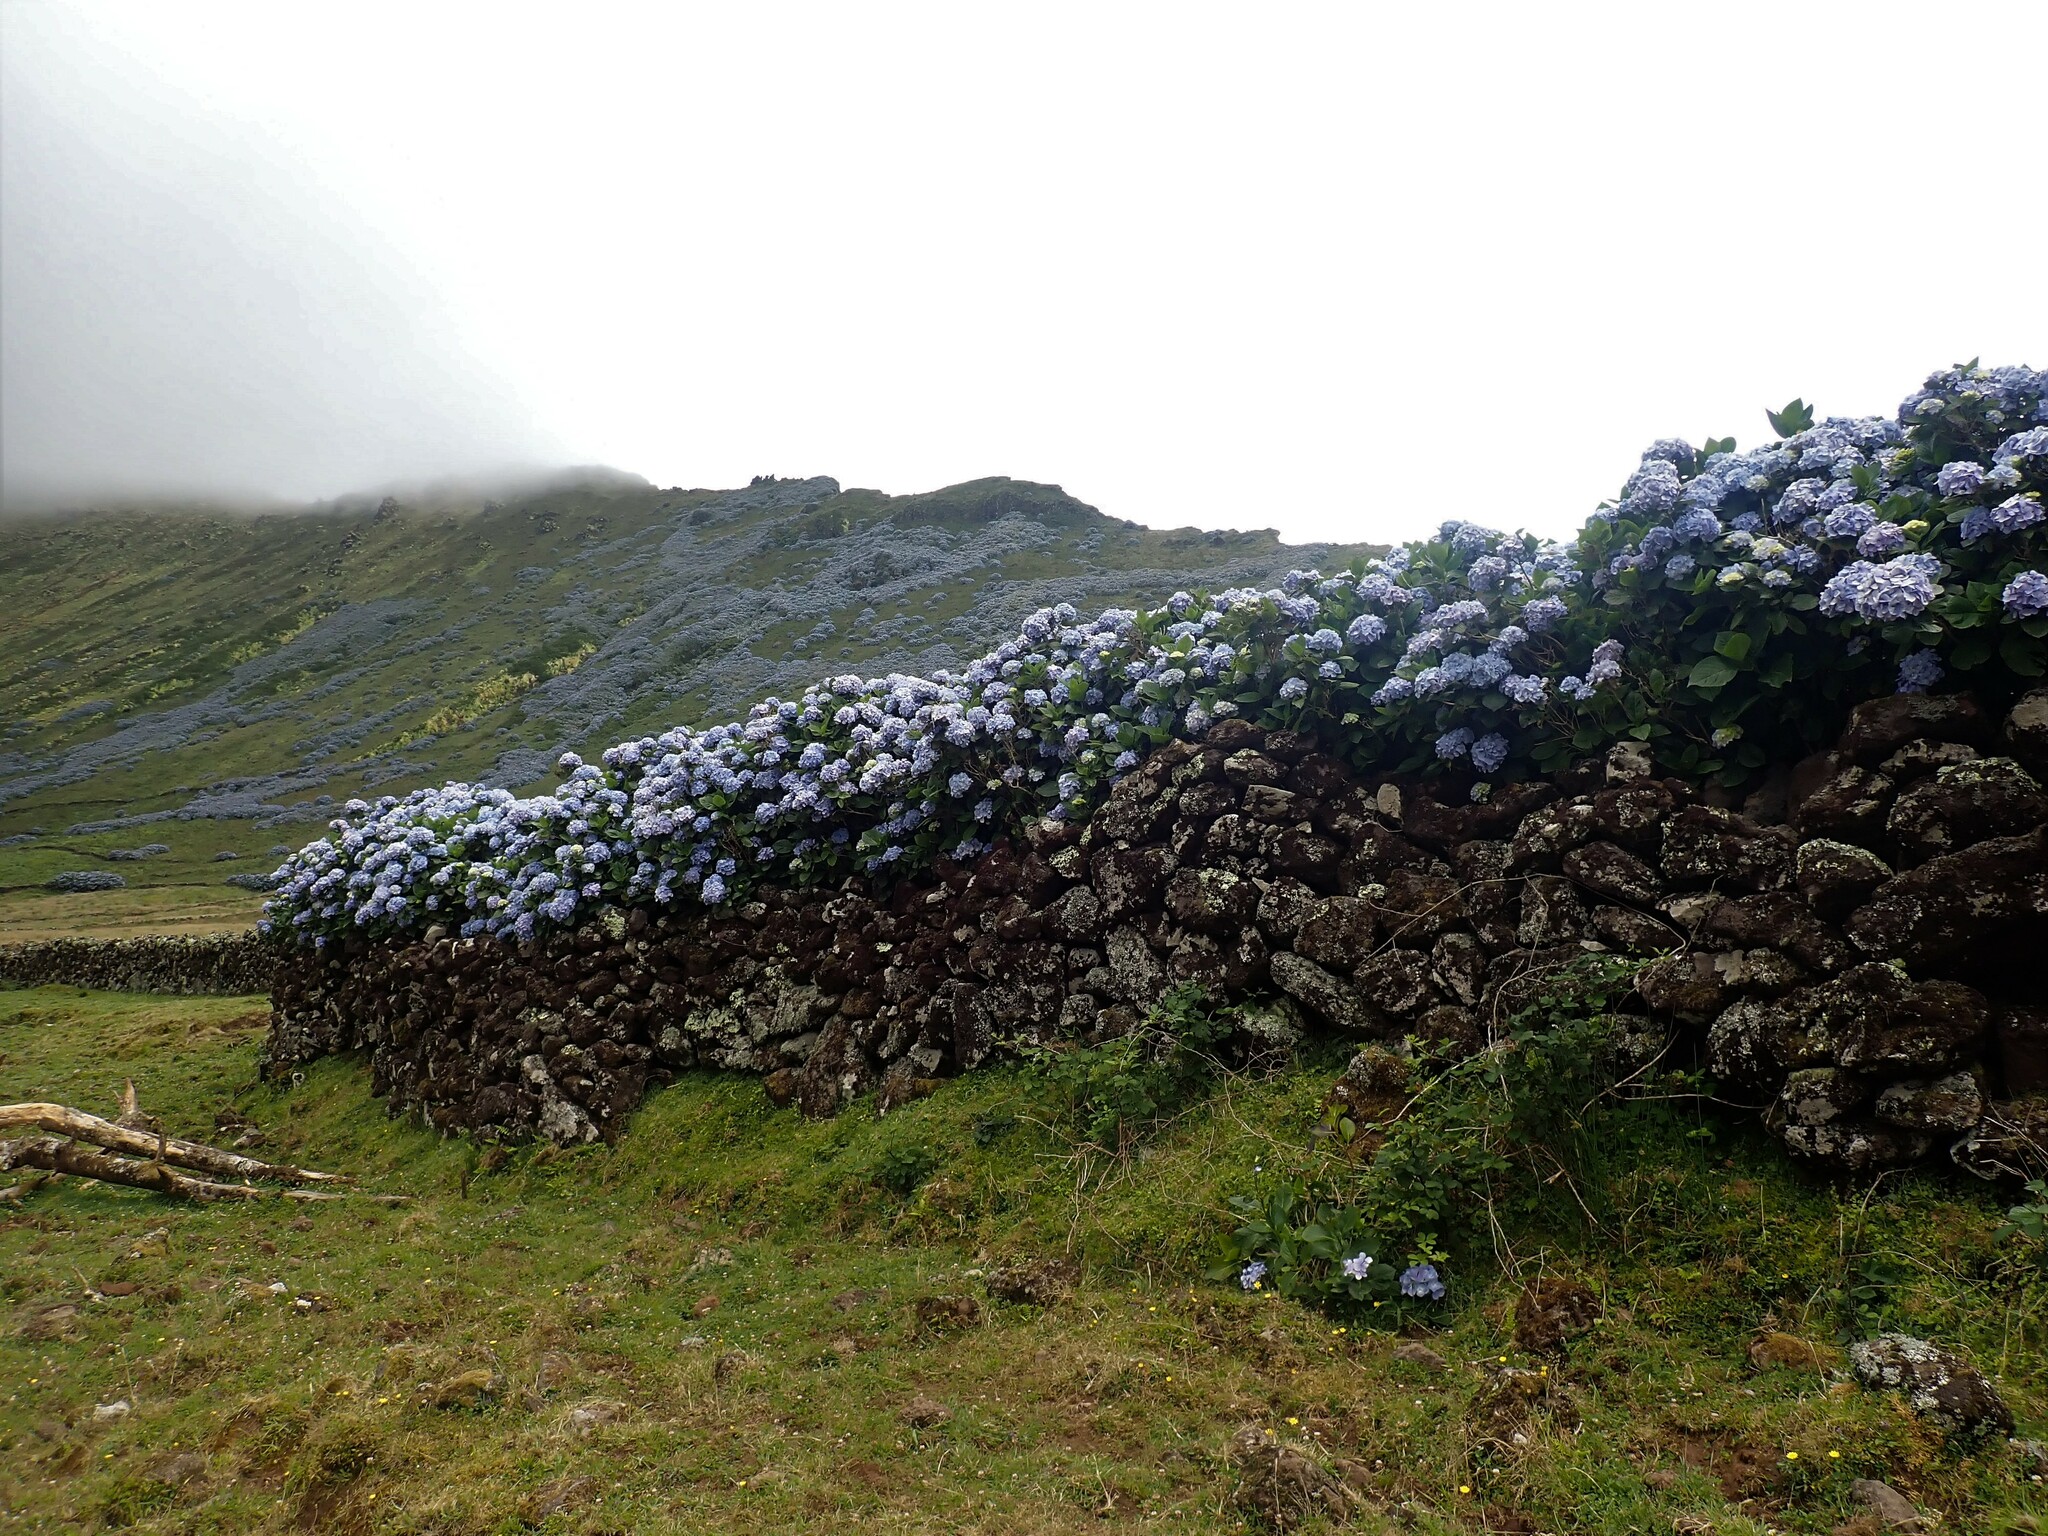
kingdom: Plantae
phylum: Tracheophyta
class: Magnoliopsida
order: Cornales
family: Hydrangeaceae
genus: Hydrangea
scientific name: Hydrangea macrophylla
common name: Hydrangea
